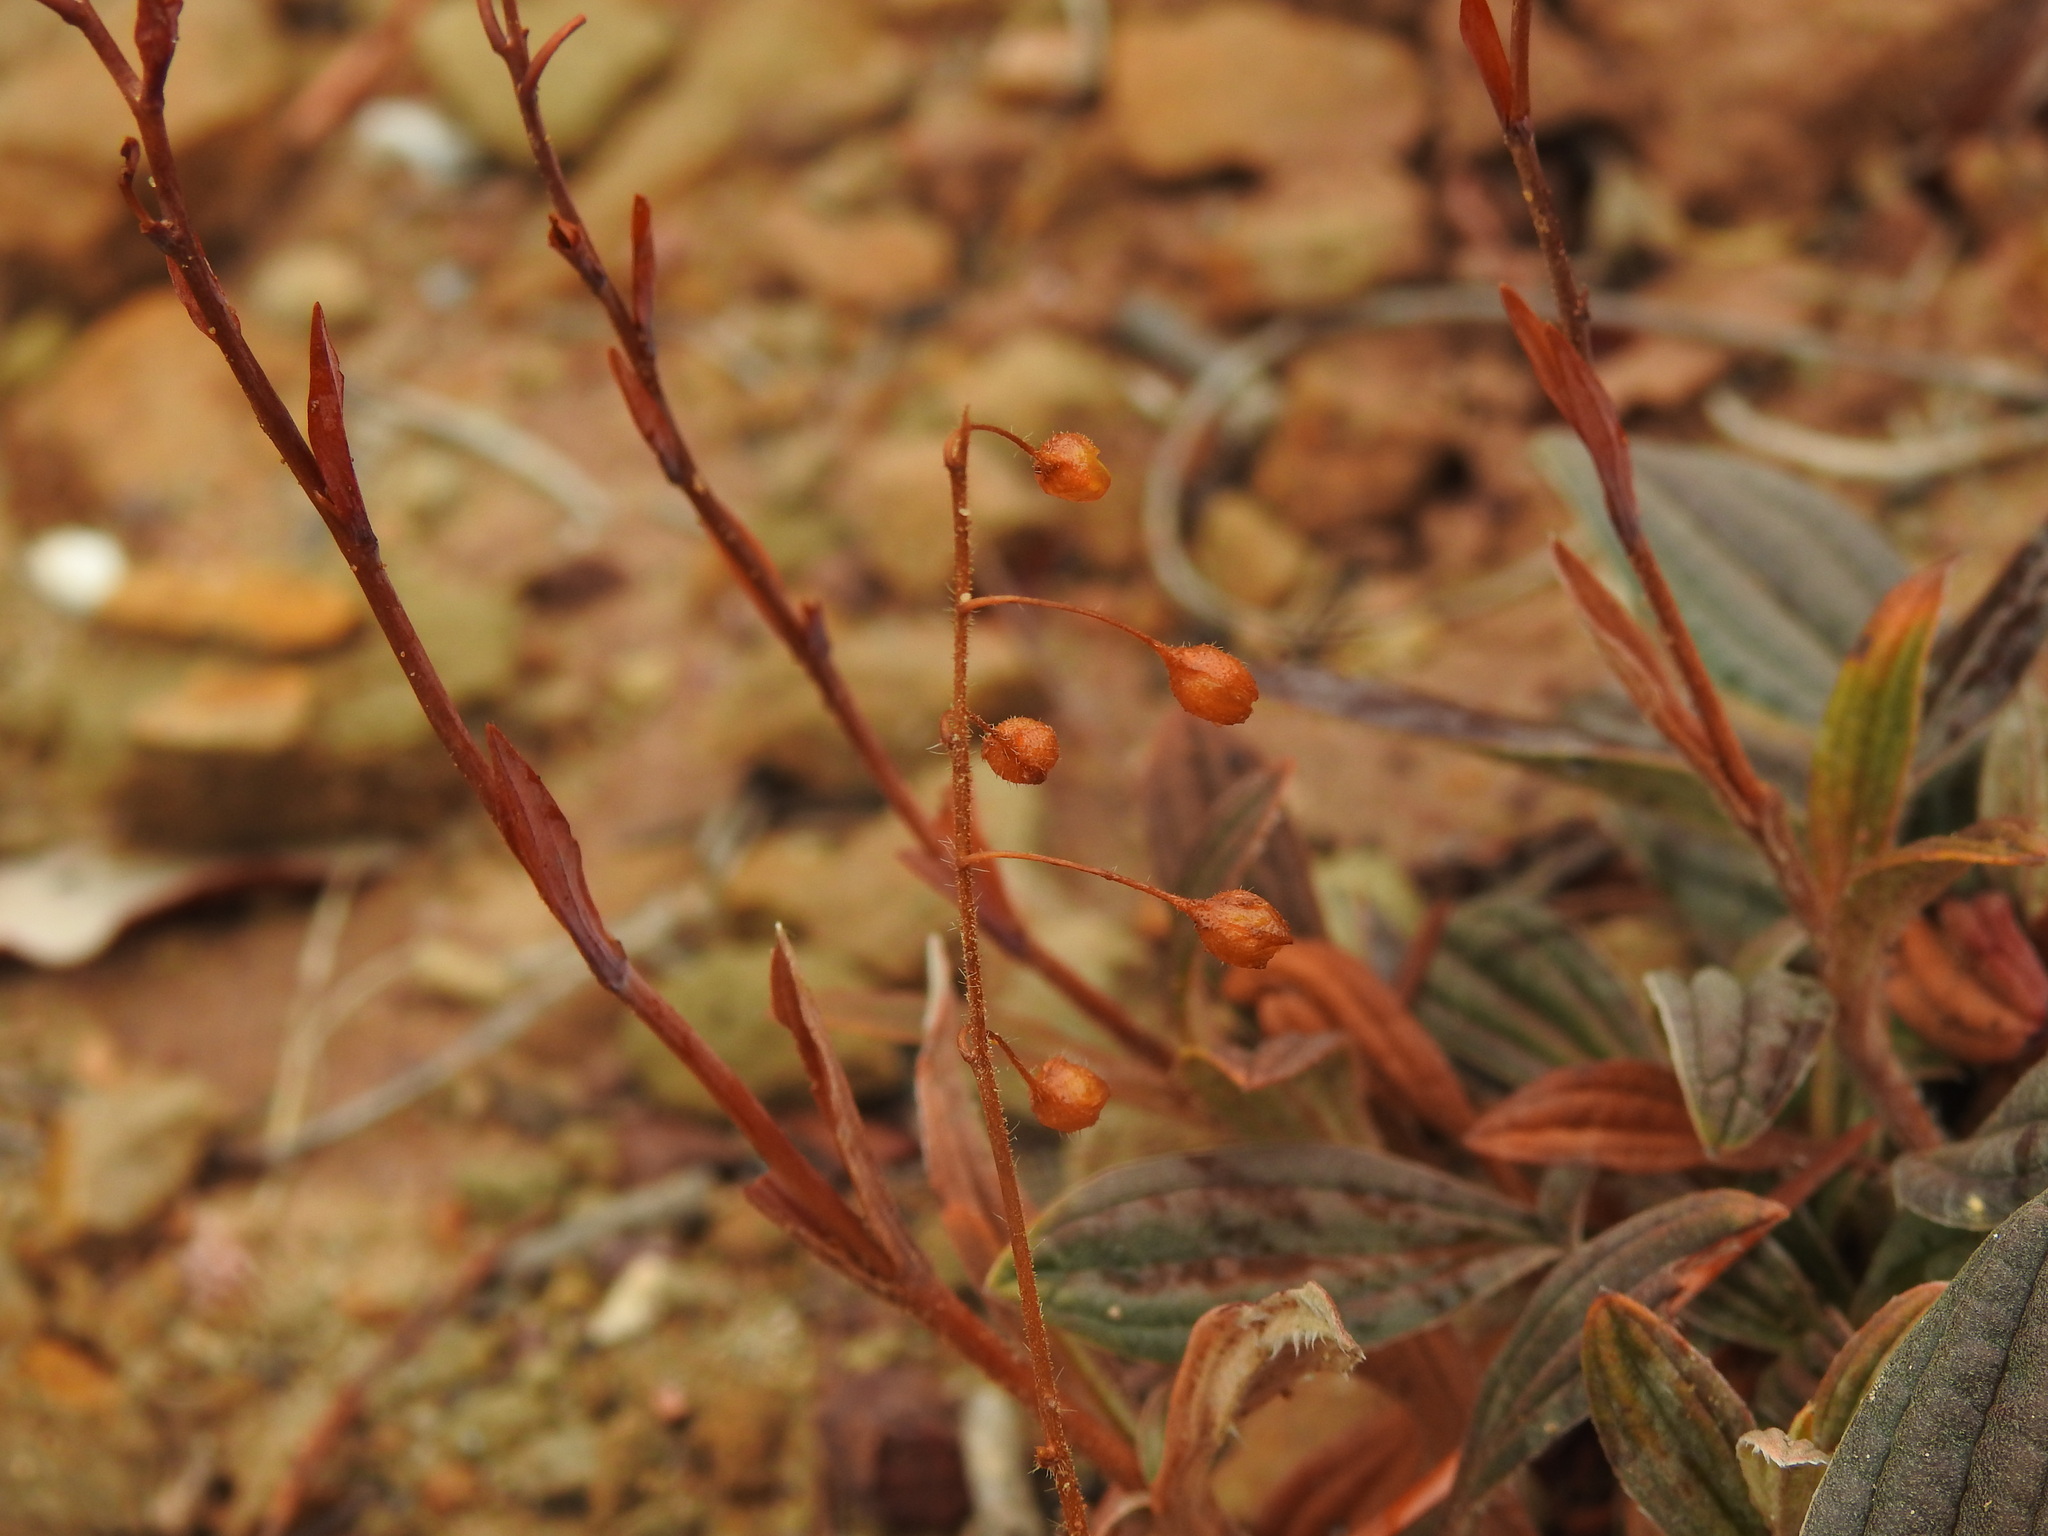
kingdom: Plantae
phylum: Tracheophyta
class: Magnoliopsida
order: Malvales
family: Cistaceae
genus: Tuberaria
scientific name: Tuberaria lignosa
